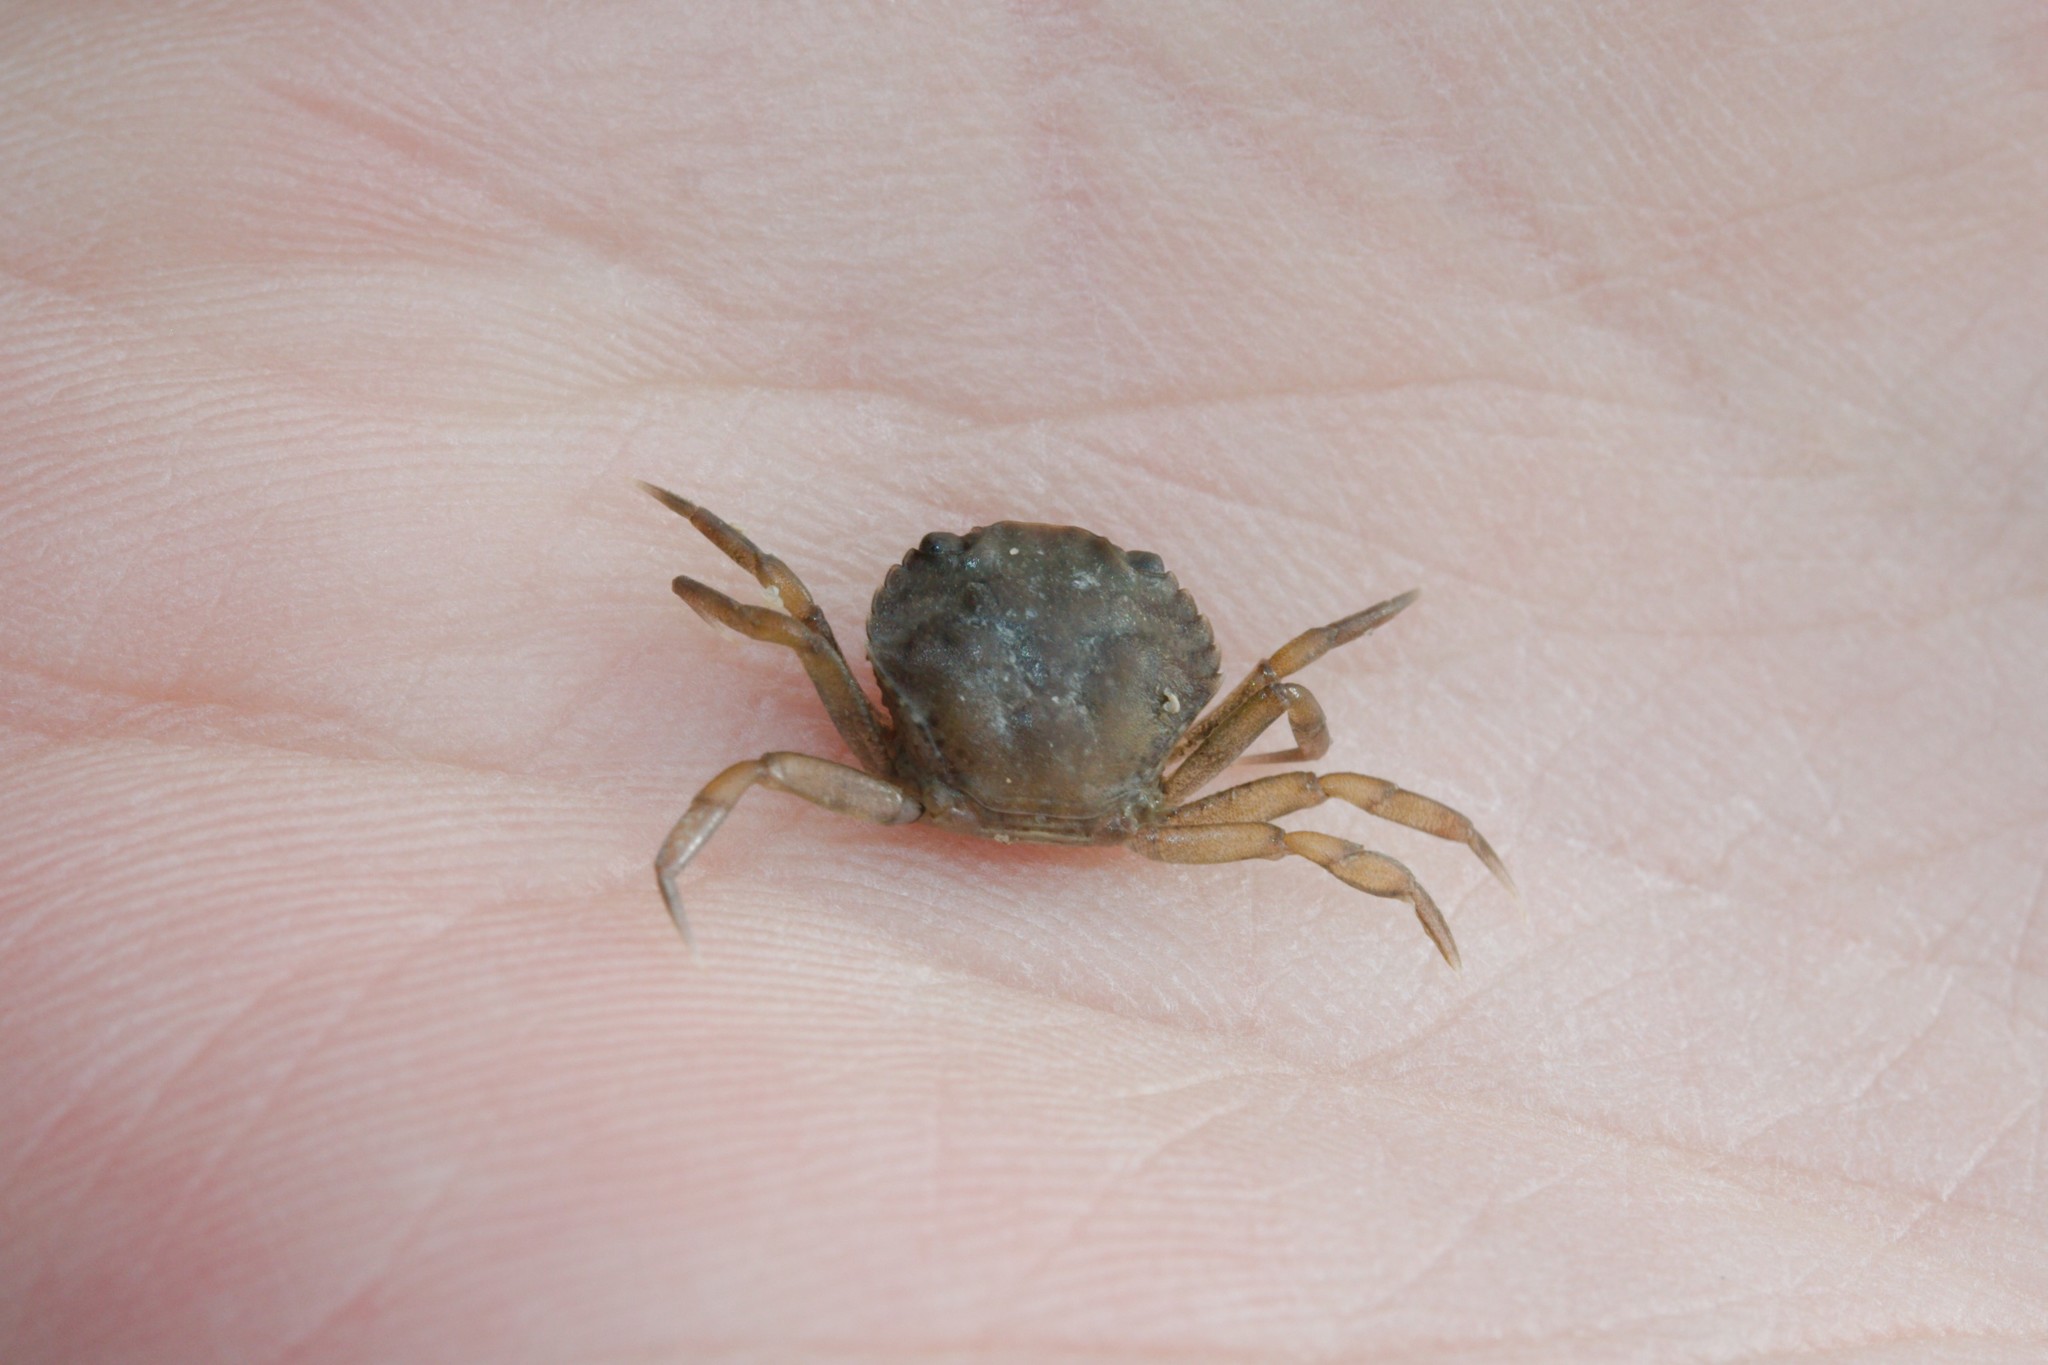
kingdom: Animalia
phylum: Arthropoda
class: Malacostraca
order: Decapoda
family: Carcinidae
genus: Carcinus
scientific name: Carcinus maenas
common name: European green crab
